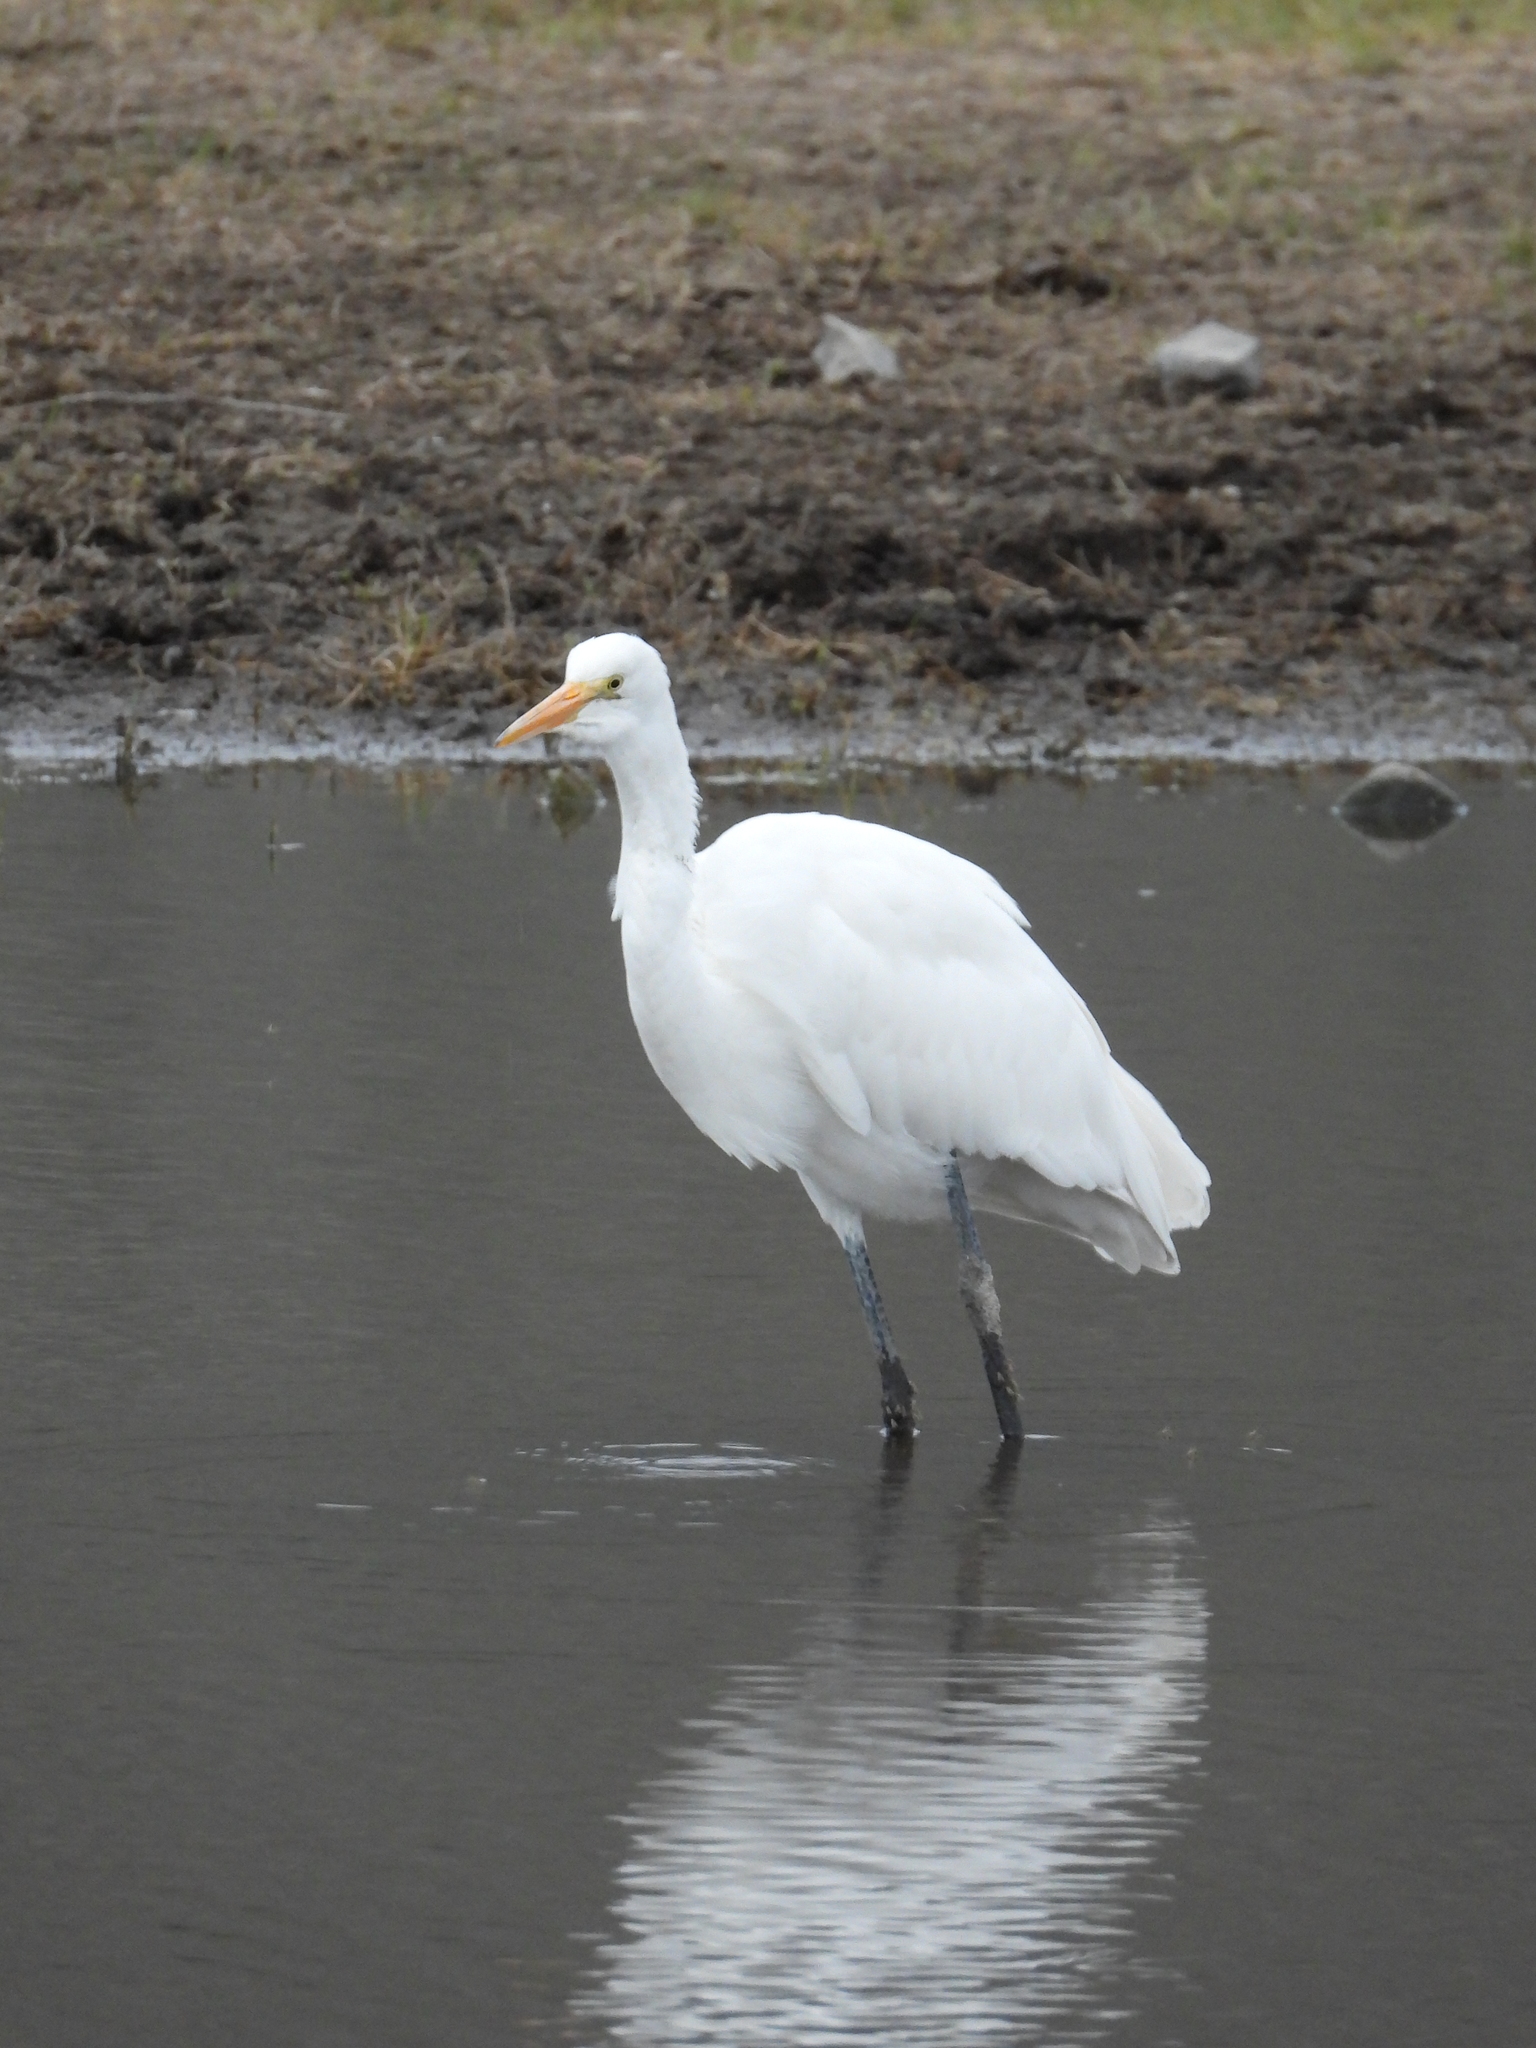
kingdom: Animalia
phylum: Chordata
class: Aves
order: Pelecaniformes
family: Ardeidae
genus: Ardea
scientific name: Ardea alba
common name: Great egret
